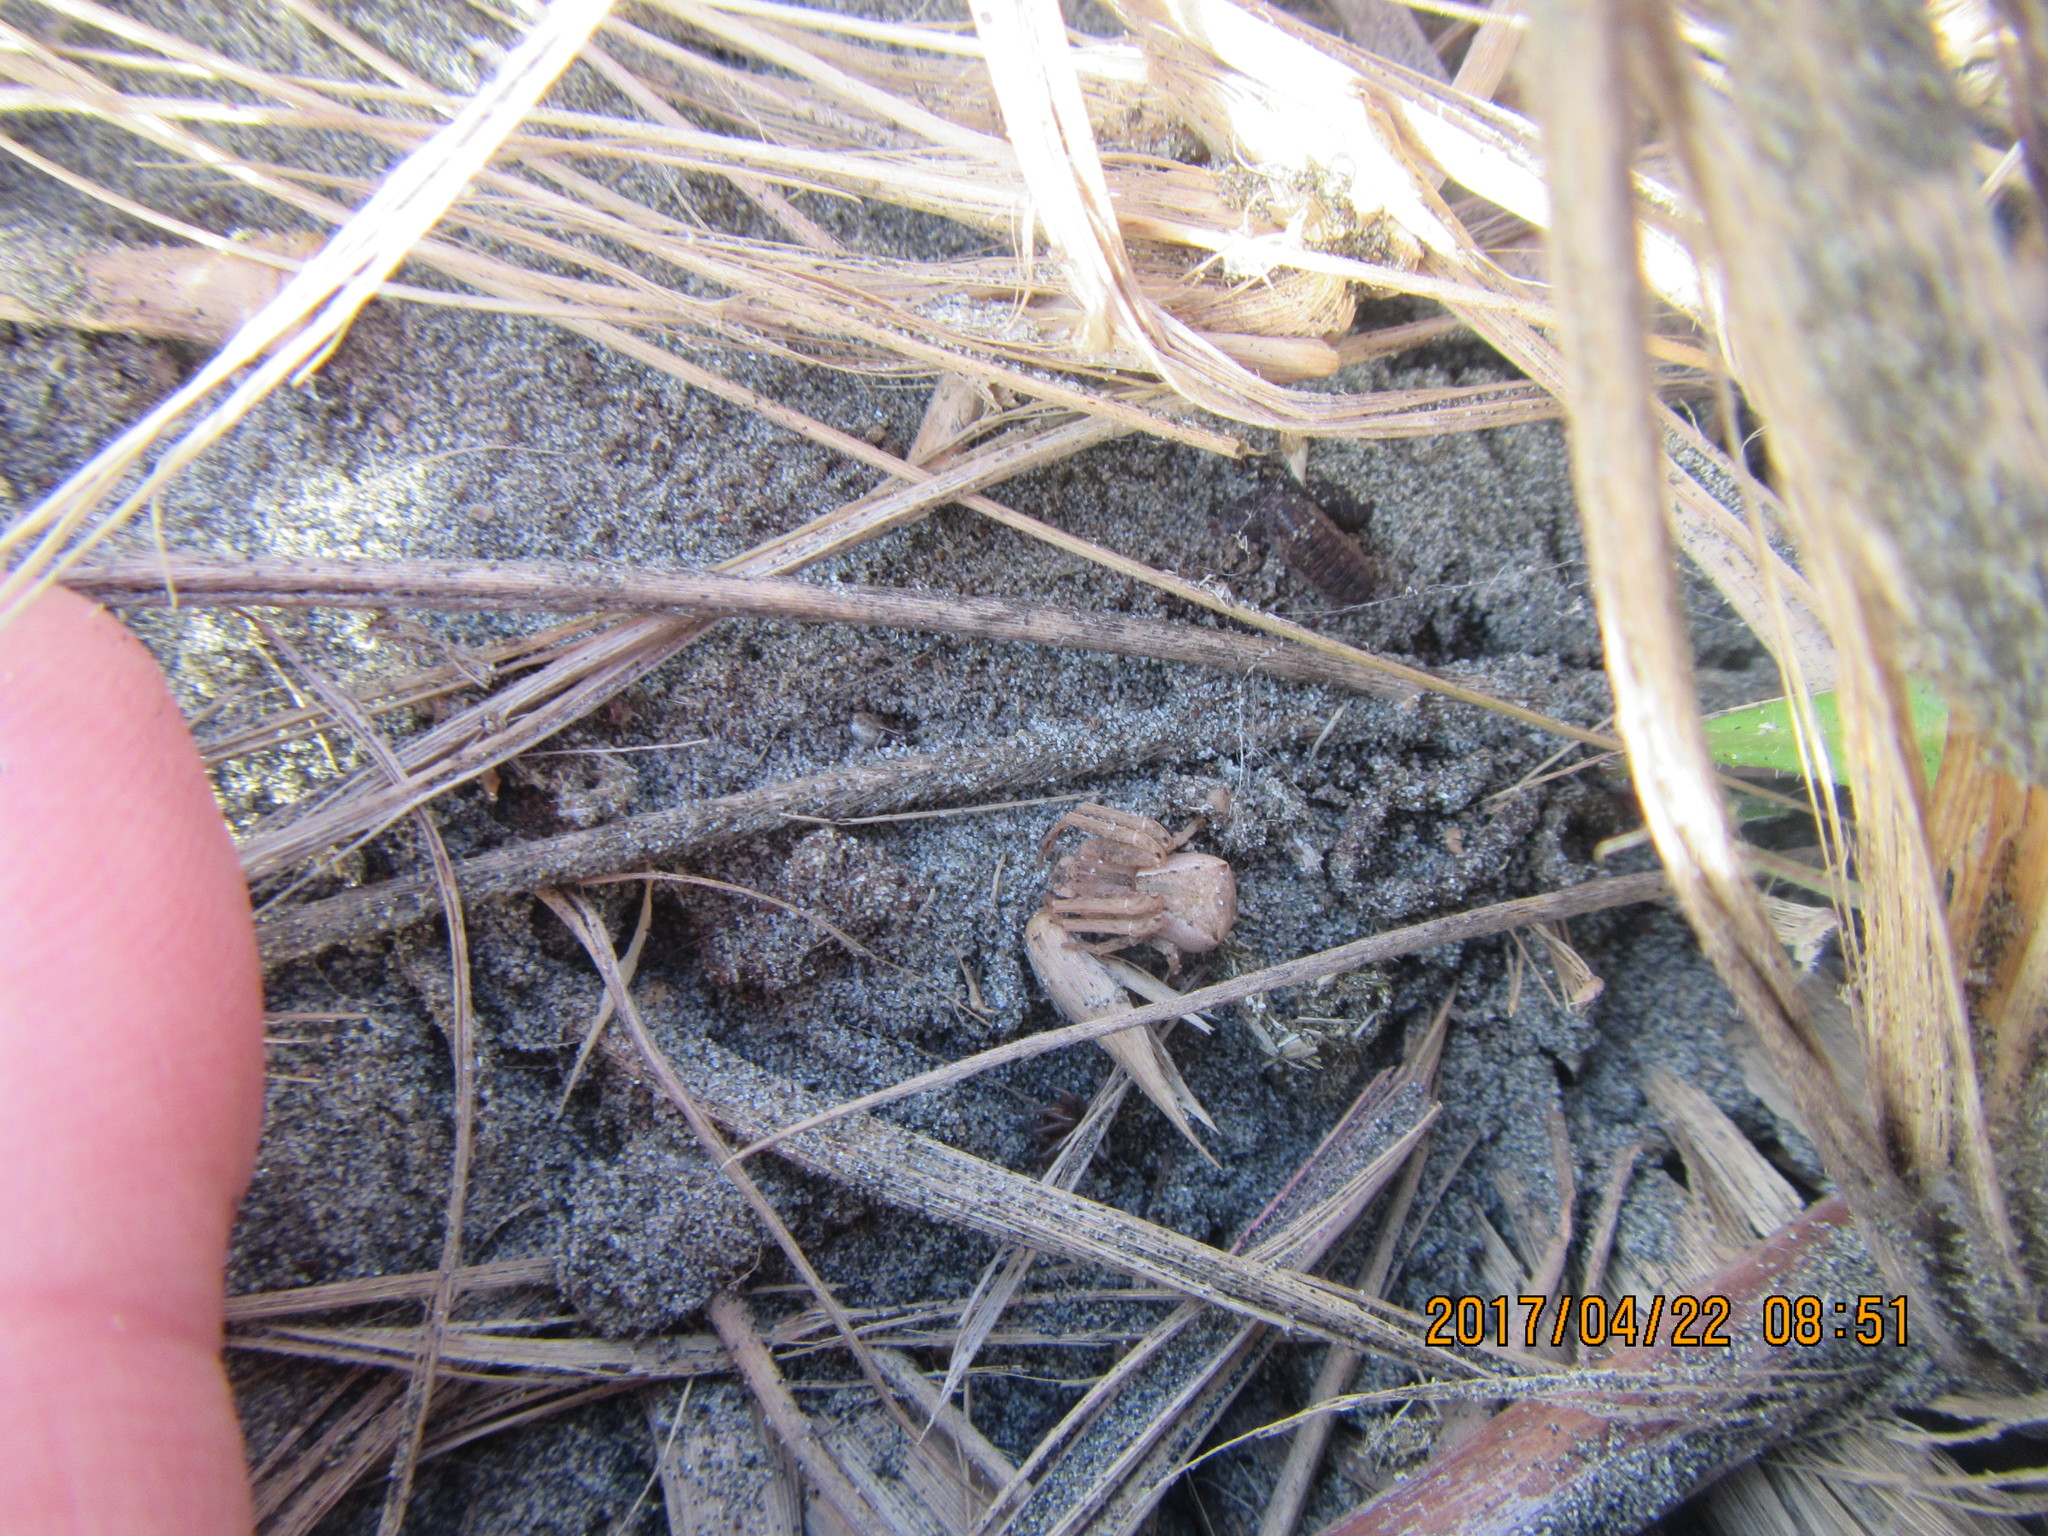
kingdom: Animalia
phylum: Arthropoda
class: Arachnida
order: Araneae
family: Gnaphosidae
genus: Anzacia
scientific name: Anzacia gemmea
